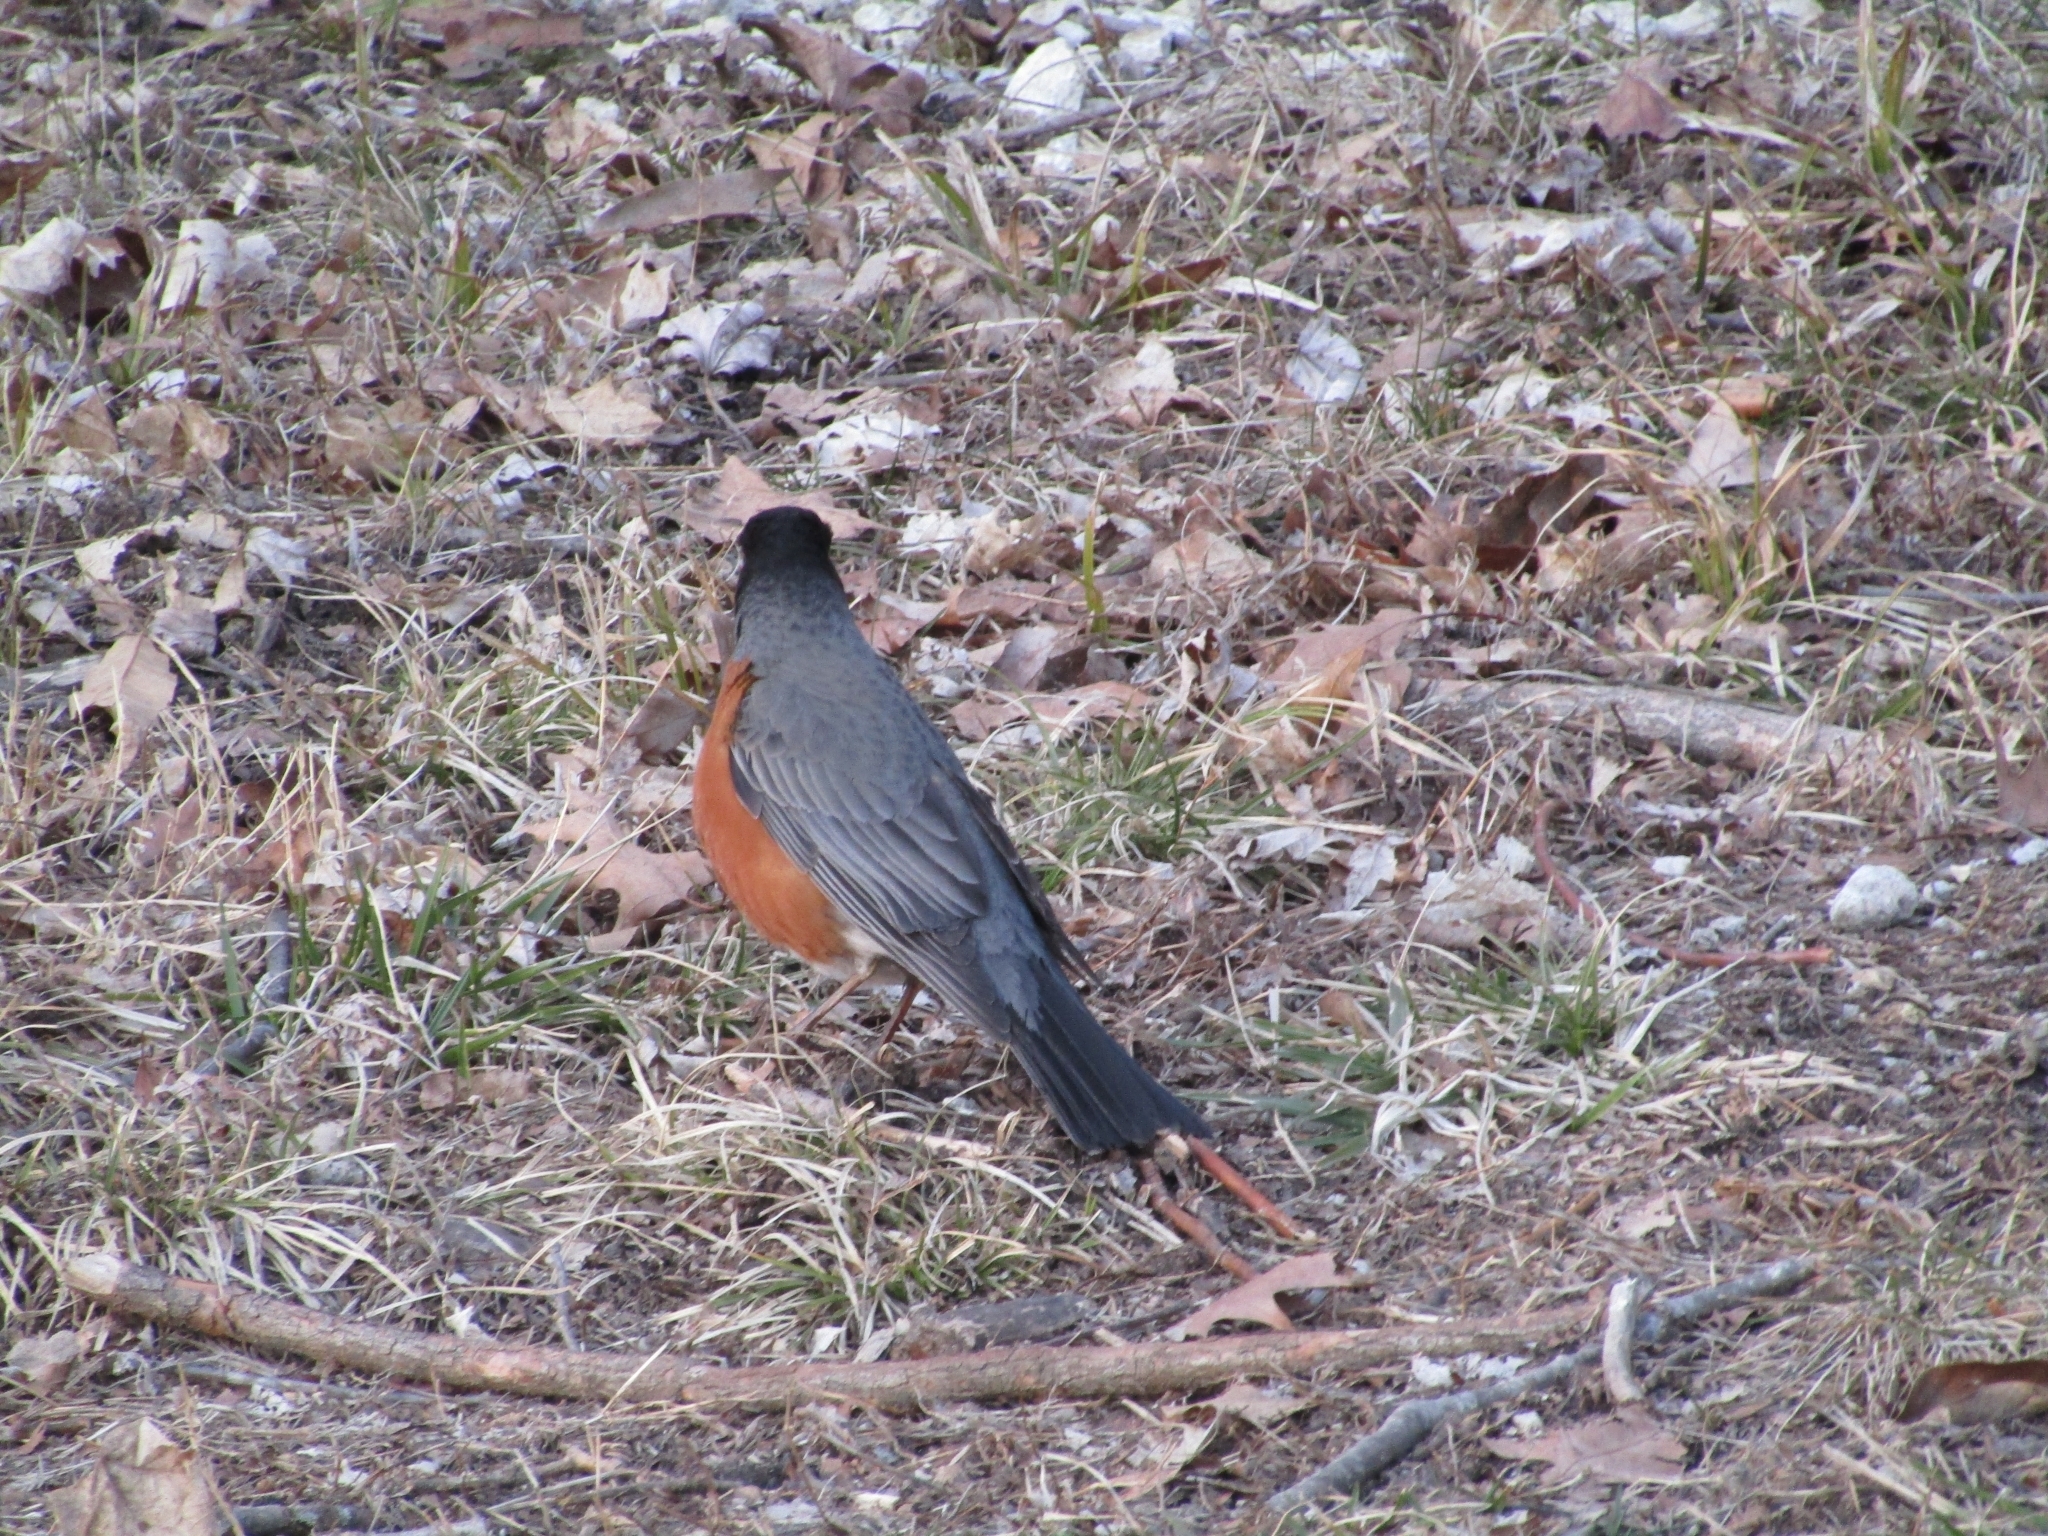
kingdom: Animalia
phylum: Chordata
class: Aves
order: Passeriformes
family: Turdidae
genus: Turdus
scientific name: Turdus migratorius
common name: American robin
